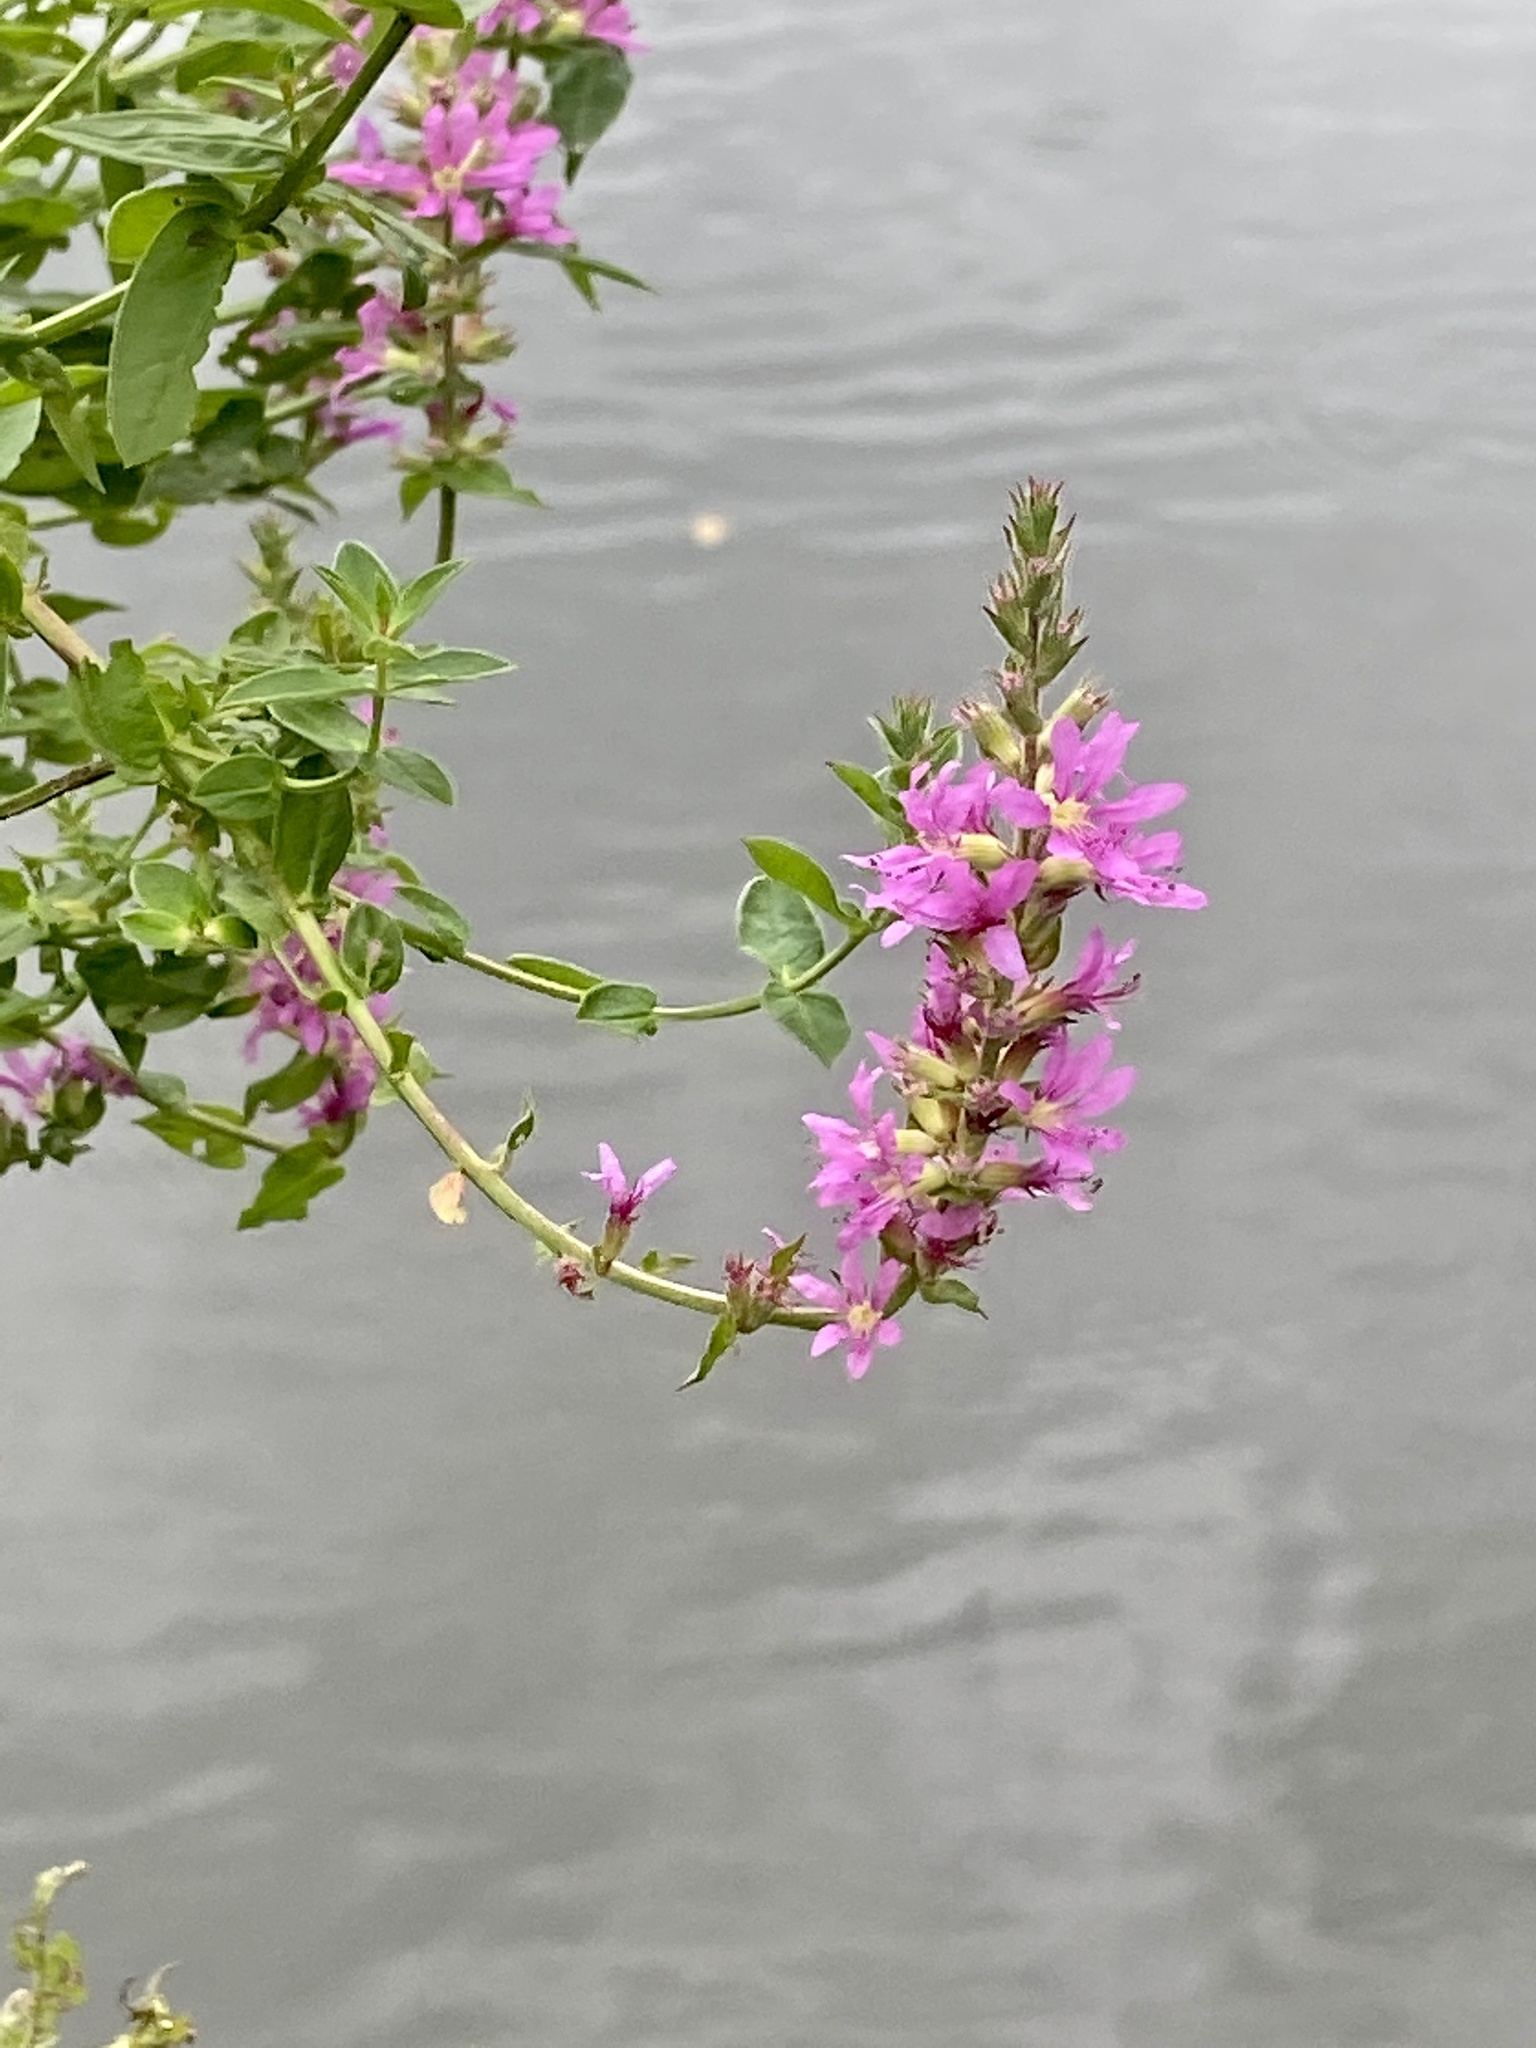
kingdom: Plantae
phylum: Tracheophyta
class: Magnoliopsida
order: Myrtales
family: Lythraceae
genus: Lythrum
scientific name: Lythrum salicaria
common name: Purple loosestrife
